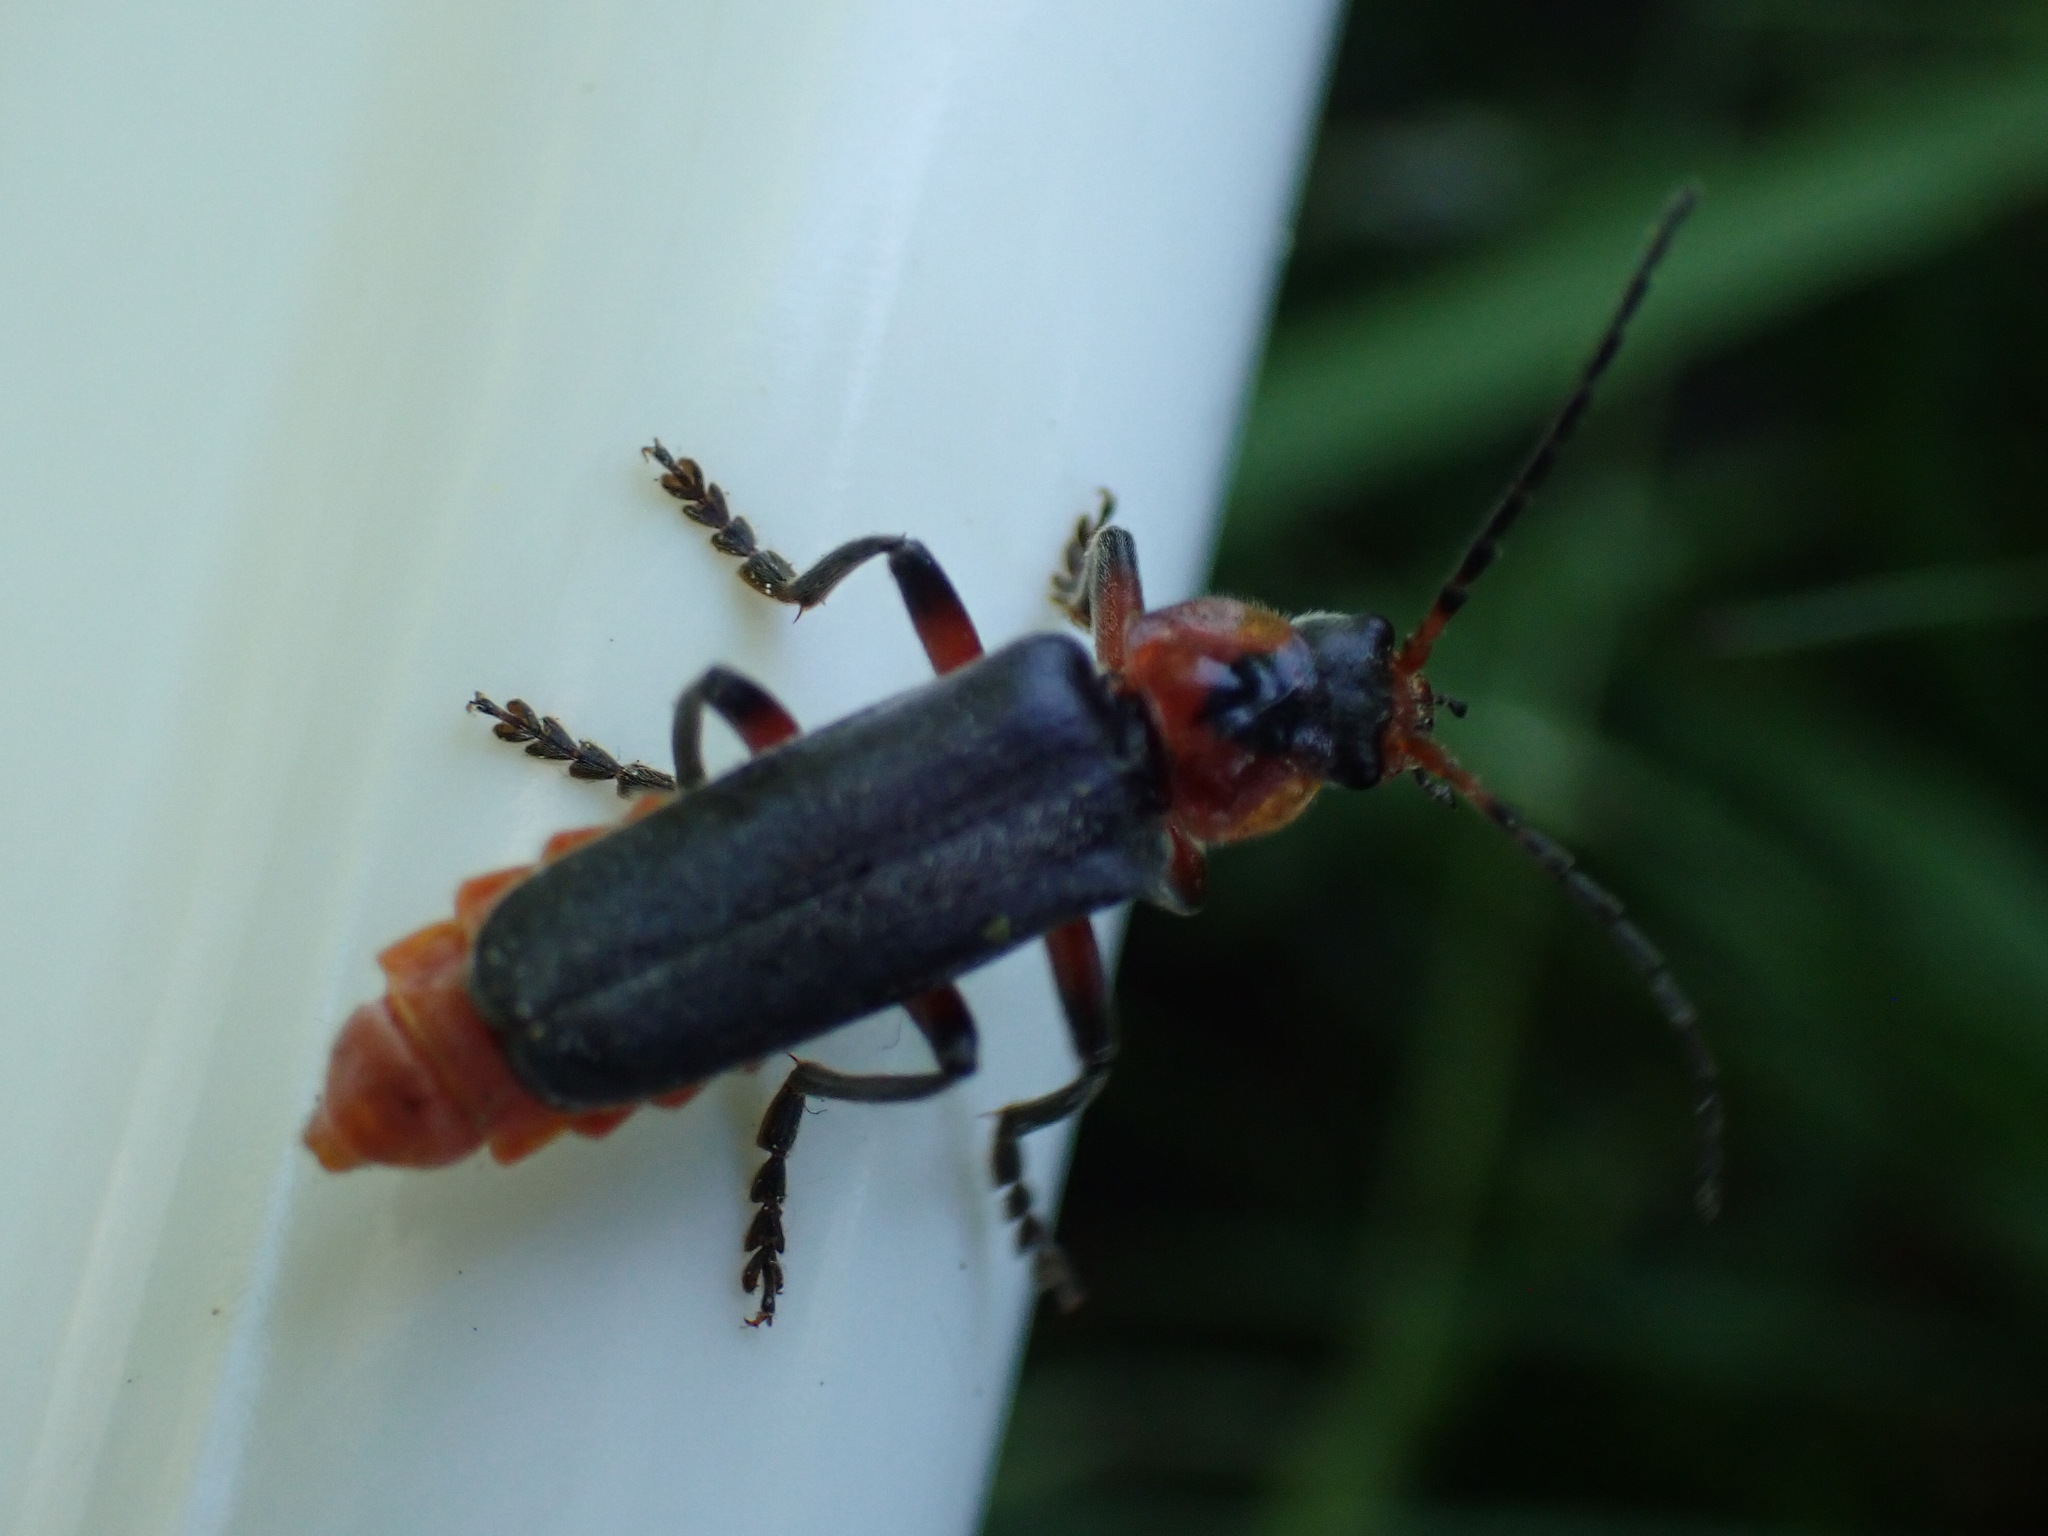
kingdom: Animalia
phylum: Arthropoda
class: Insecta
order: Coleoptera
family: Cantharidae
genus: Cantharis
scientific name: Cantharis rustica
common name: Soldier beetle
